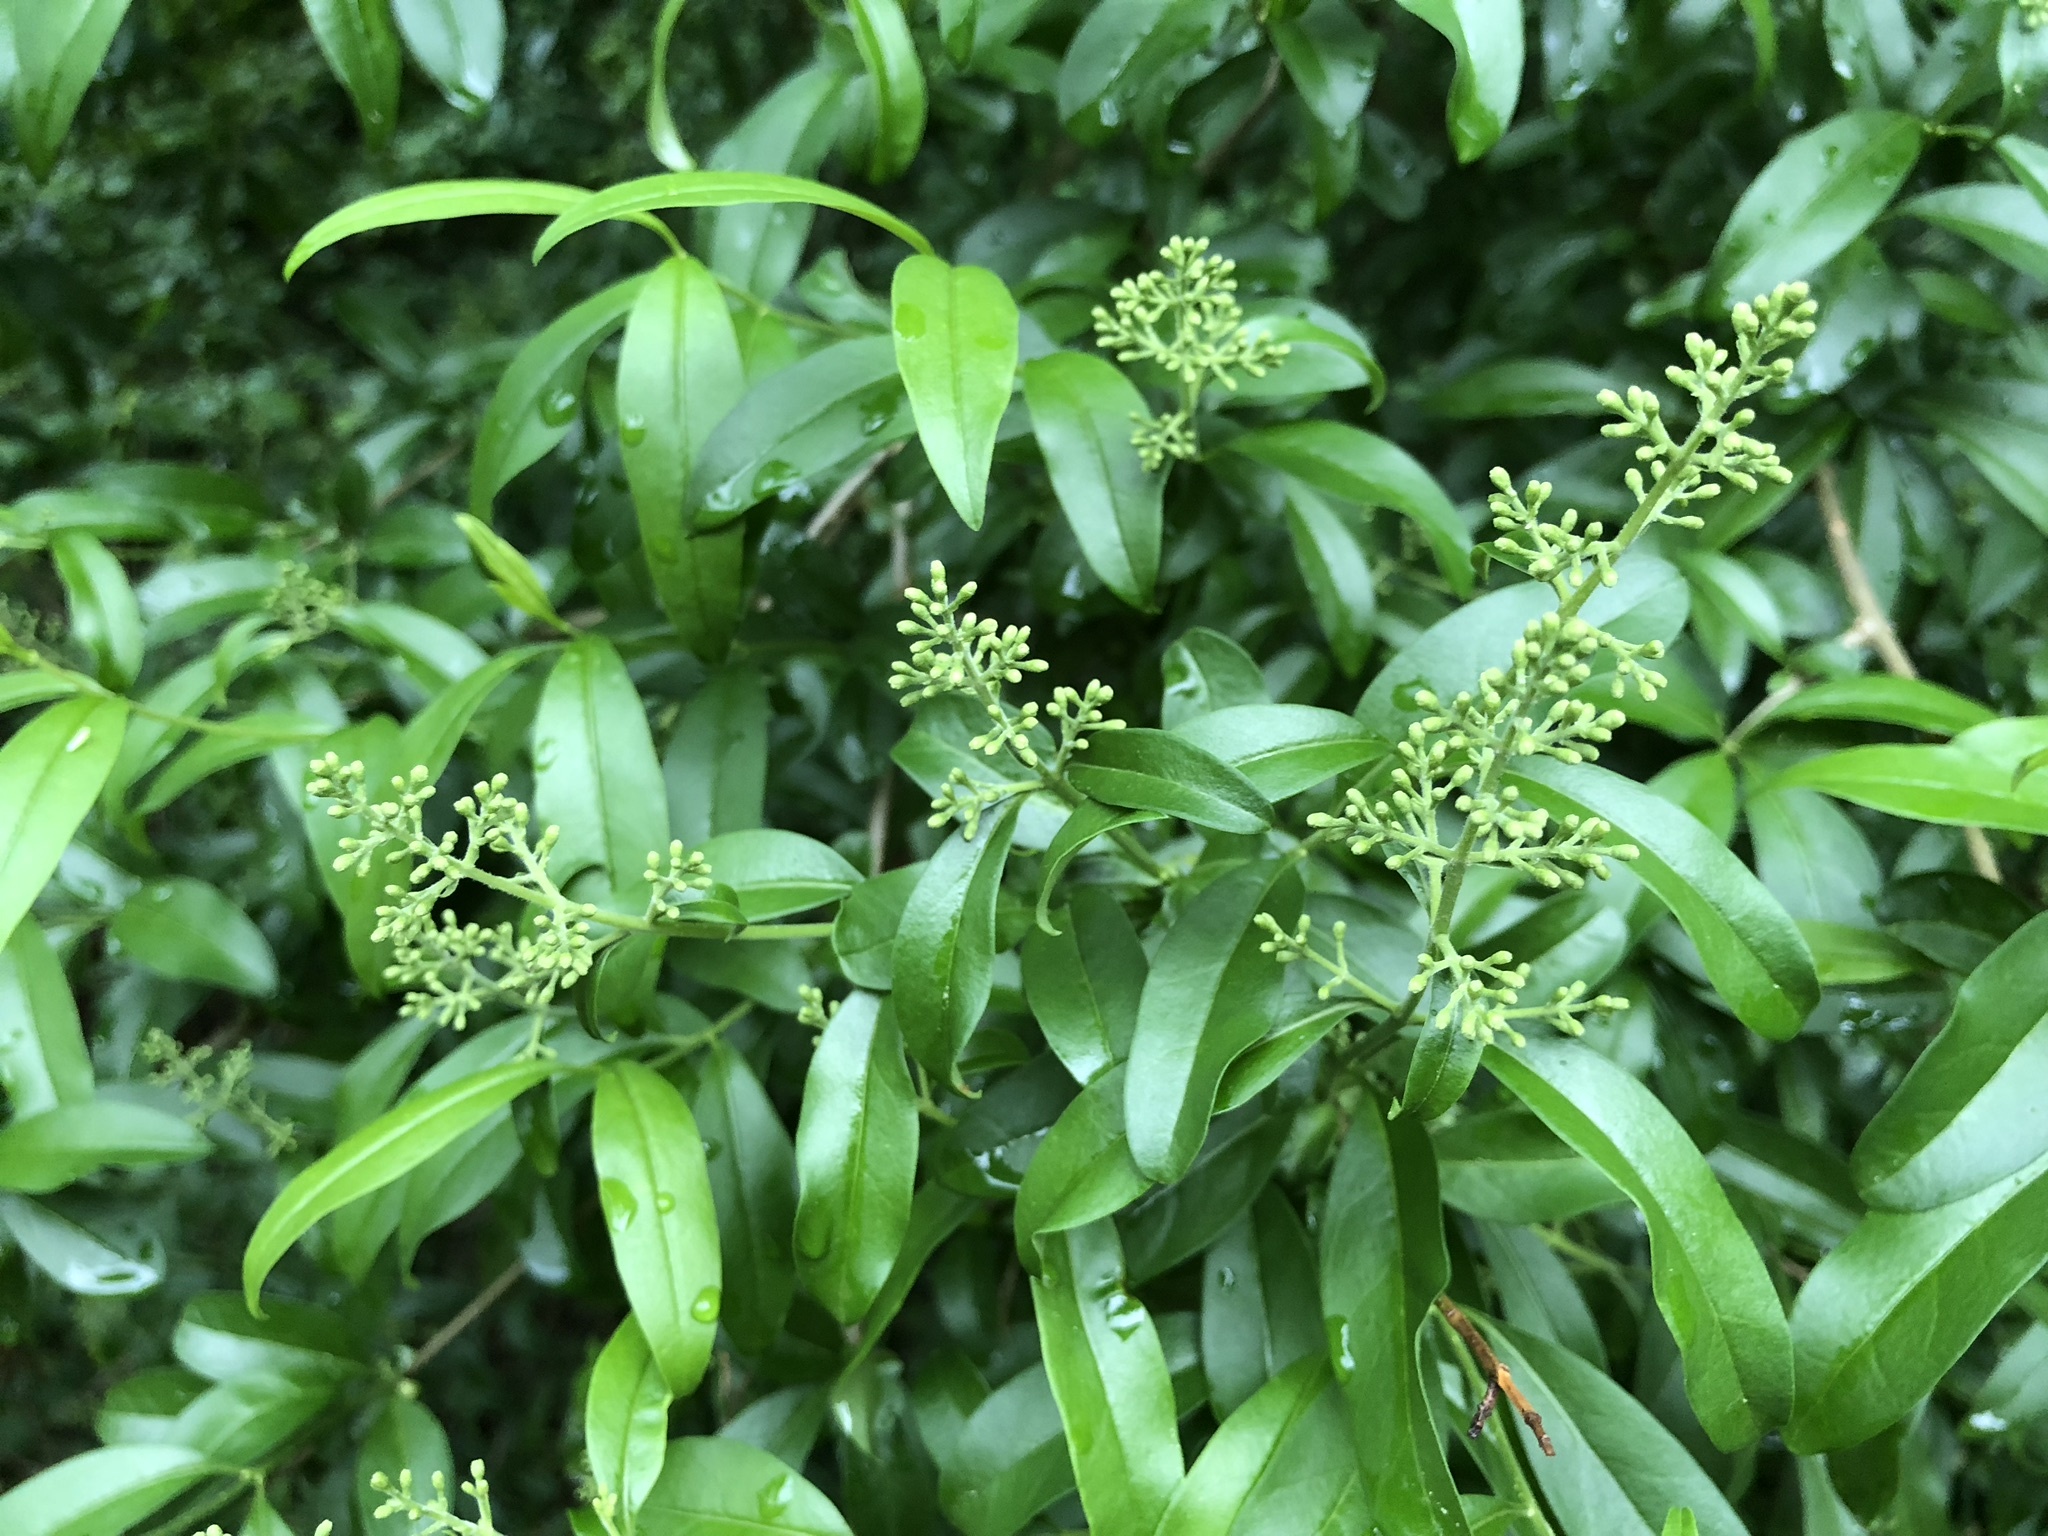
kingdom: Plantae
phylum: Tracheophyta
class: Magnoliopsida
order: Lamiales
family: Oleaceae
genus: Ligustrum
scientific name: Ligustrum vulgare
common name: Wild privet
